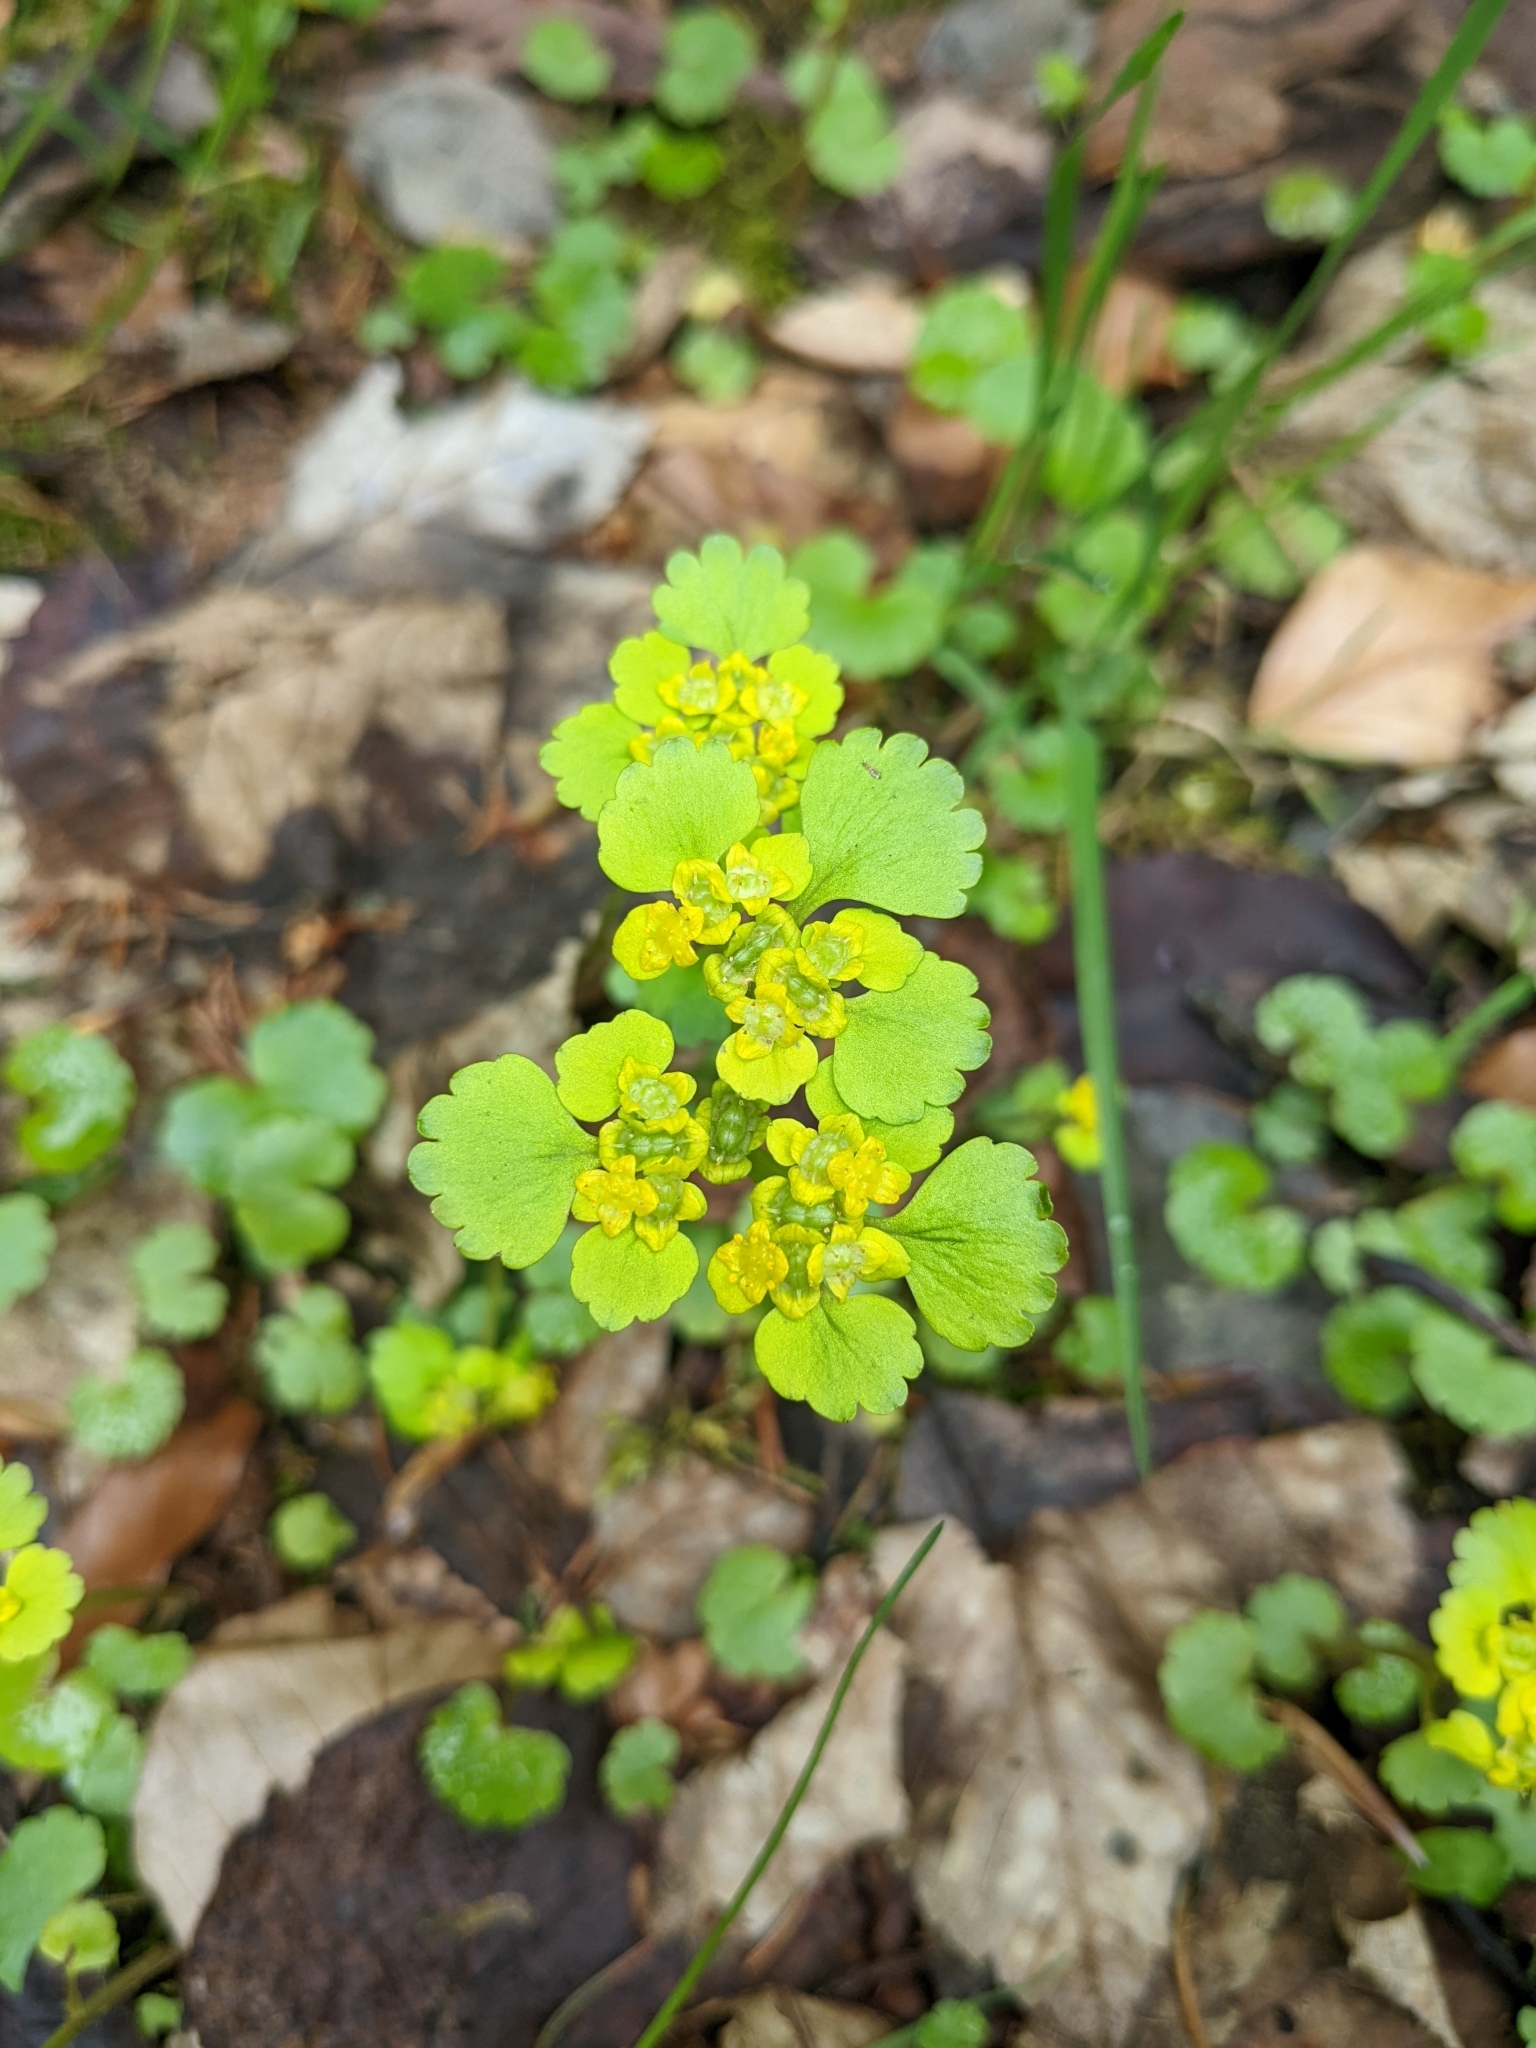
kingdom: Plantae
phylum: Tracheophyta
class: Magnoliopsida
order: Saxifragales
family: Saxifragaceae
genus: Chrysosplenium
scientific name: Chrysosplenium alternifolium
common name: Alternate-leaved golden-saxifrage
